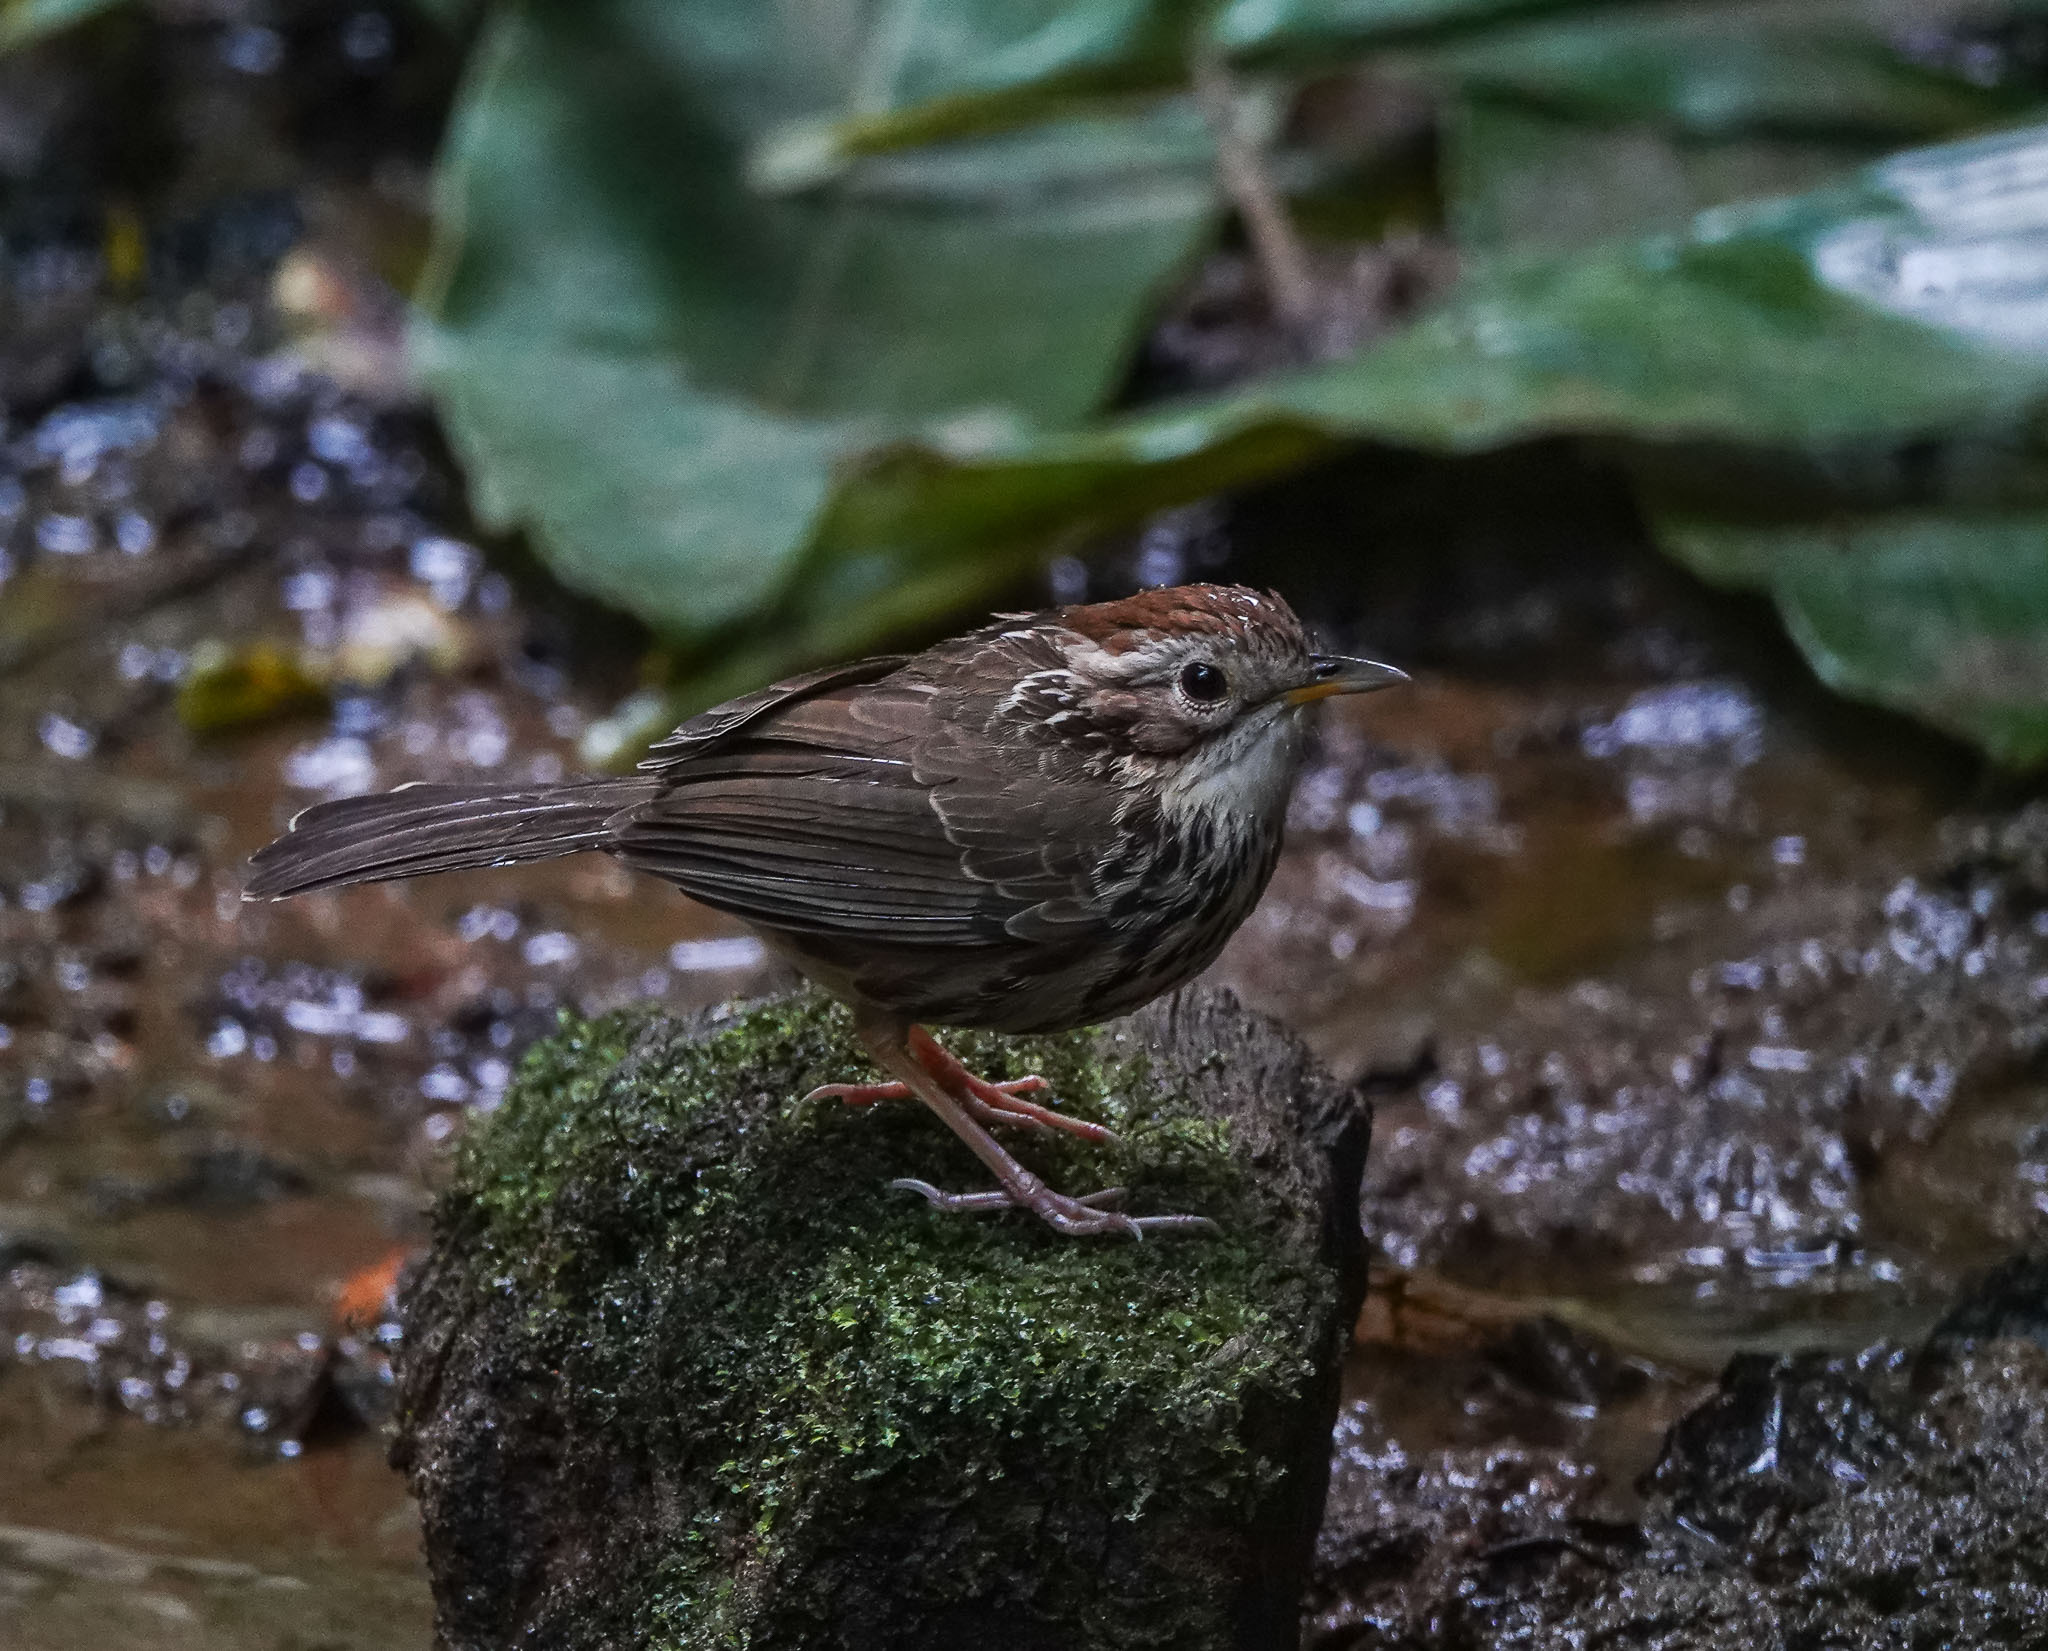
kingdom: Animalia
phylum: Chordata
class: Aves
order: Passeriformes
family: Pellorneidae
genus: Pellorneum
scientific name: Pellorneum ruficeps
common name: Puff-throated babbler
